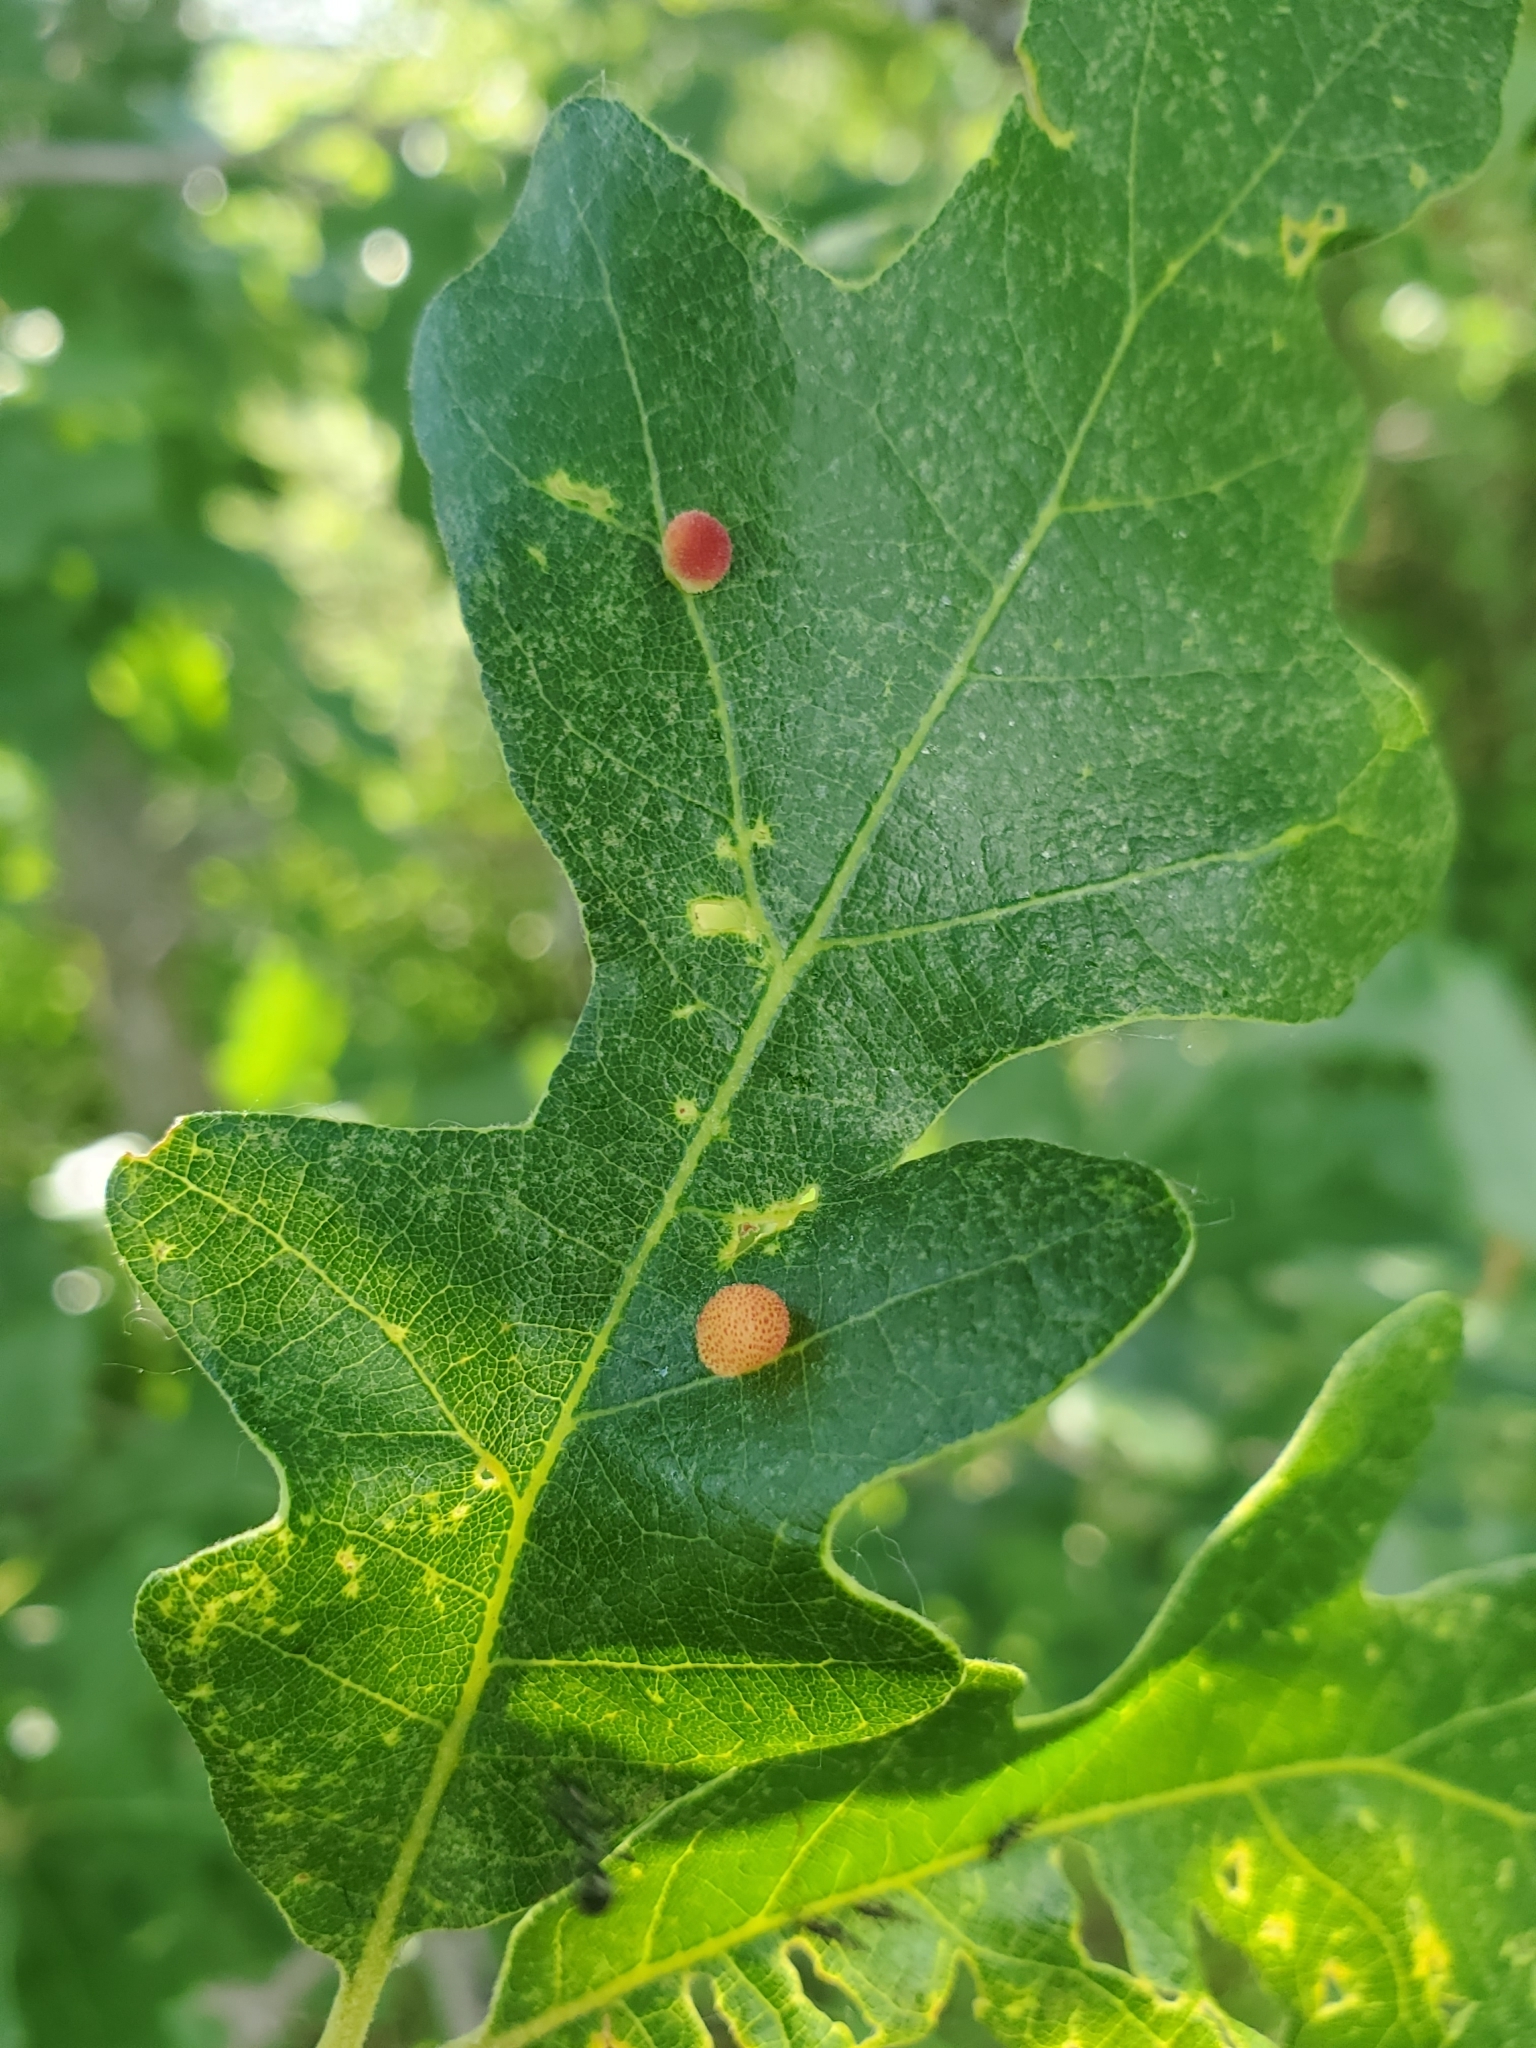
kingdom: Animalia
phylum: Arthropoda
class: Insecta
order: Hymenoptera
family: Cynipidae
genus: Acraspis
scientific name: Acraspis quercushirta
